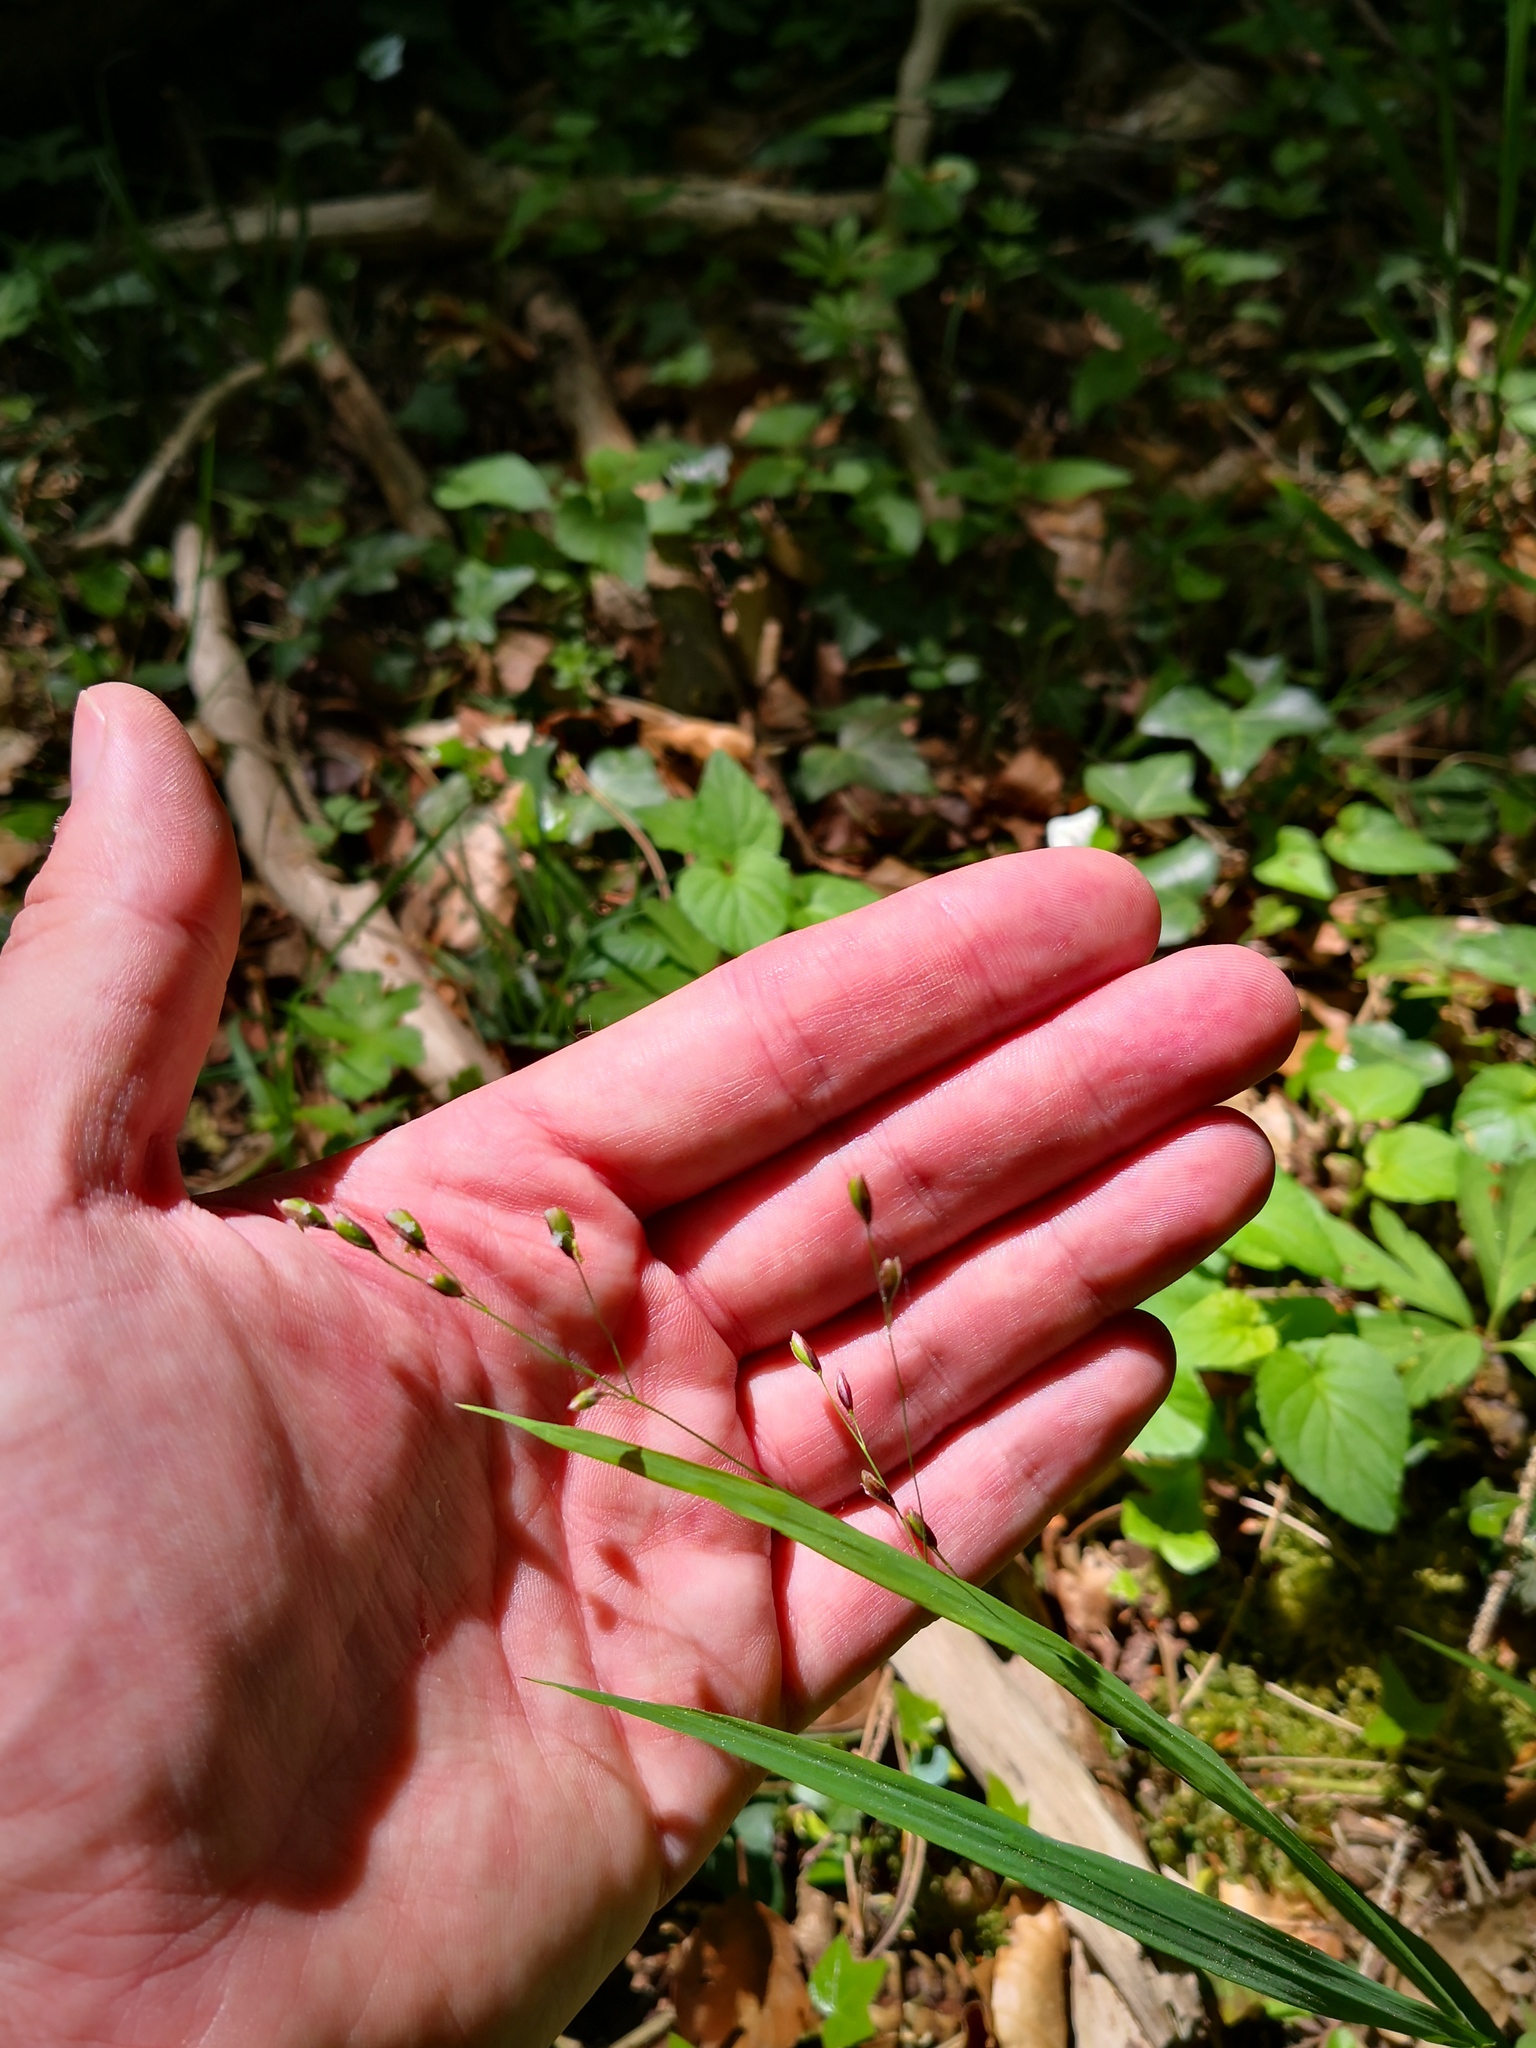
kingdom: Plantae
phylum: Tracheophyta
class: Liliopsida
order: Poales
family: Poaceae
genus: Melica
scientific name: Melica uniflora
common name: Wood melick
